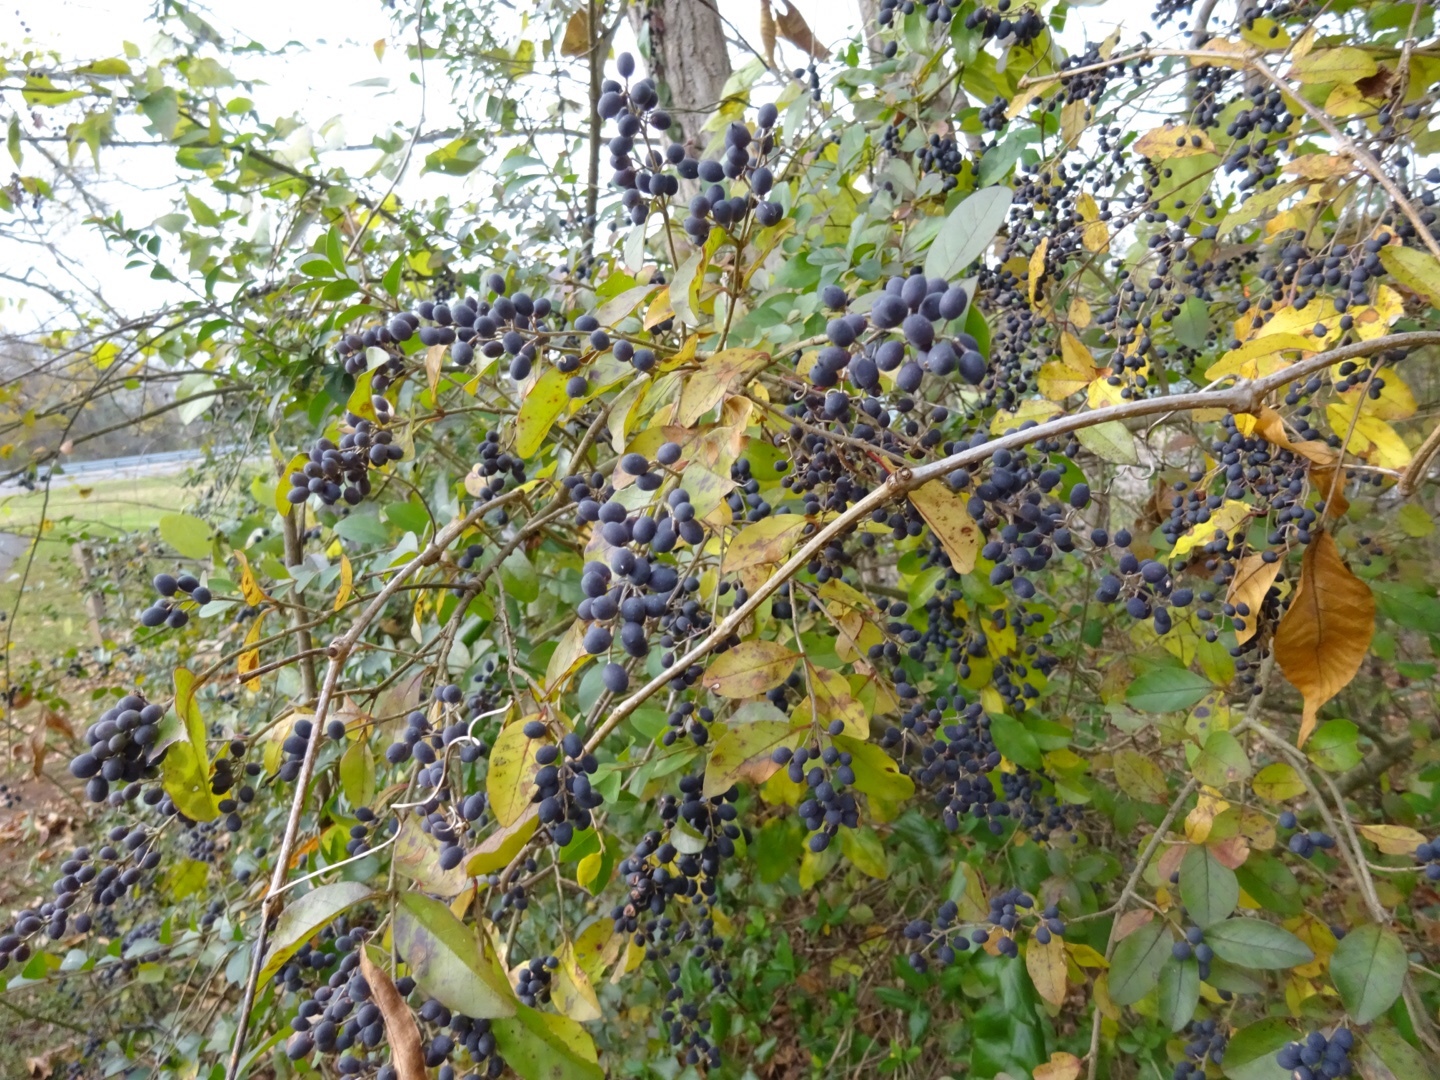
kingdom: Plantae
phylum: Tracheophyta
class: Magnoliopsida
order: Lamiales
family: Oleaceae
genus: Ligustrum
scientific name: Ligustrum sinense
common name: Chinese privet
